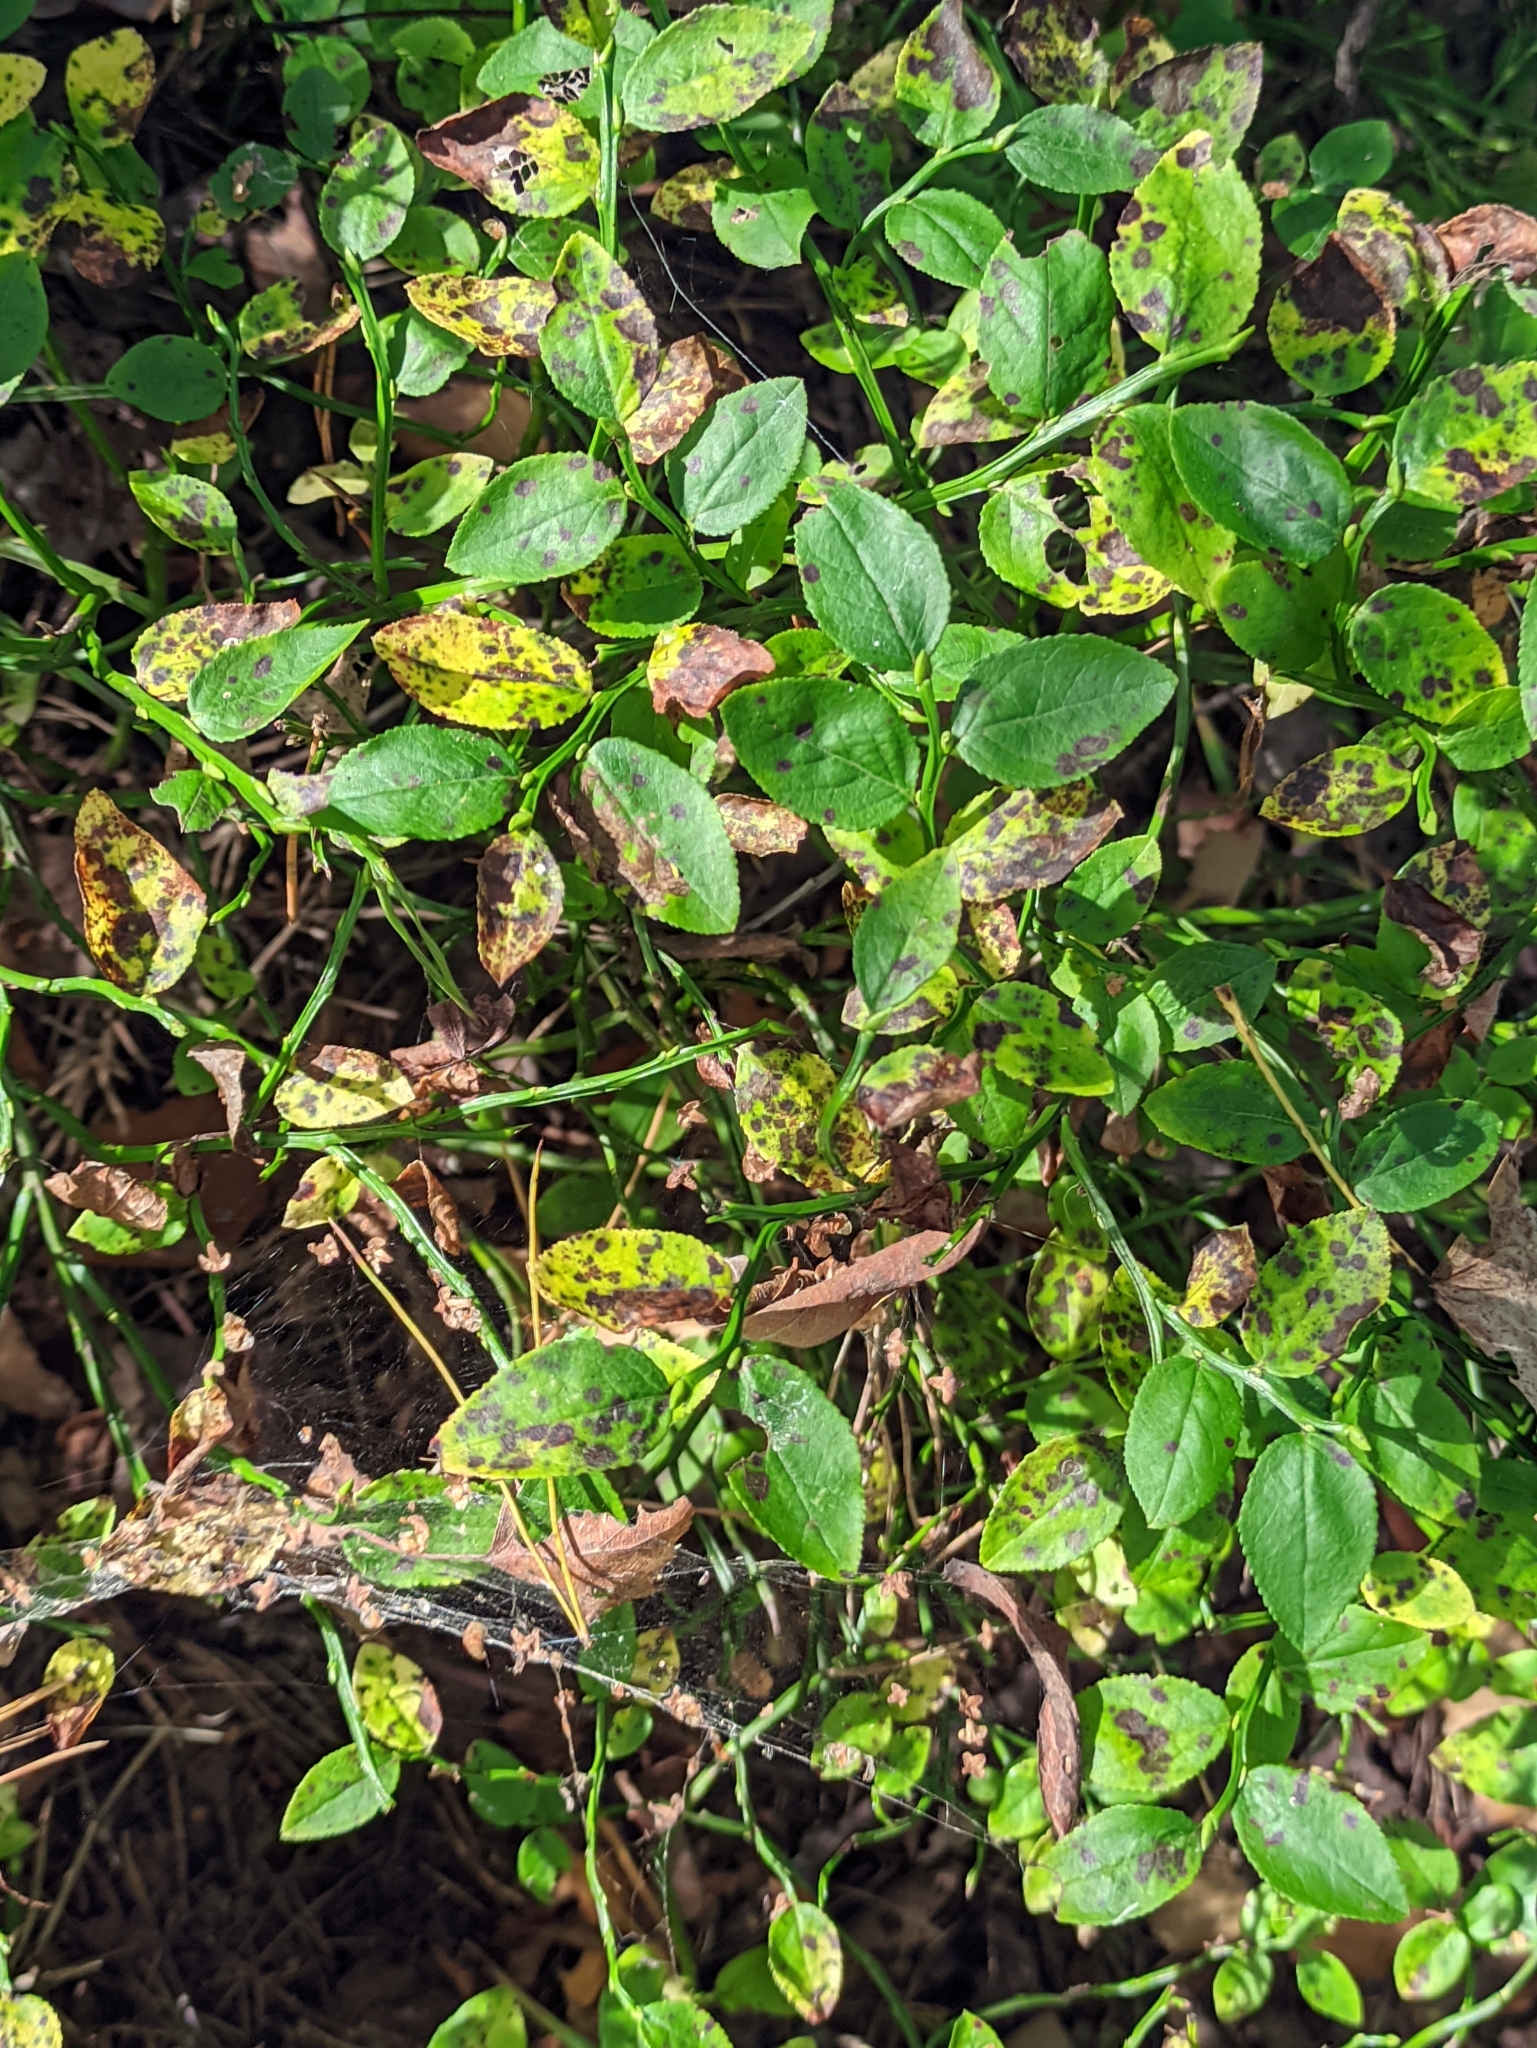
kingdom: Plantae
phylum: Tracheophyta
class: Magnoliopsida
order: Ericales
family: Ericaceae
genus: Vaccinium
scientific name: Vaccinium myrtillus
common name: Bilberry
